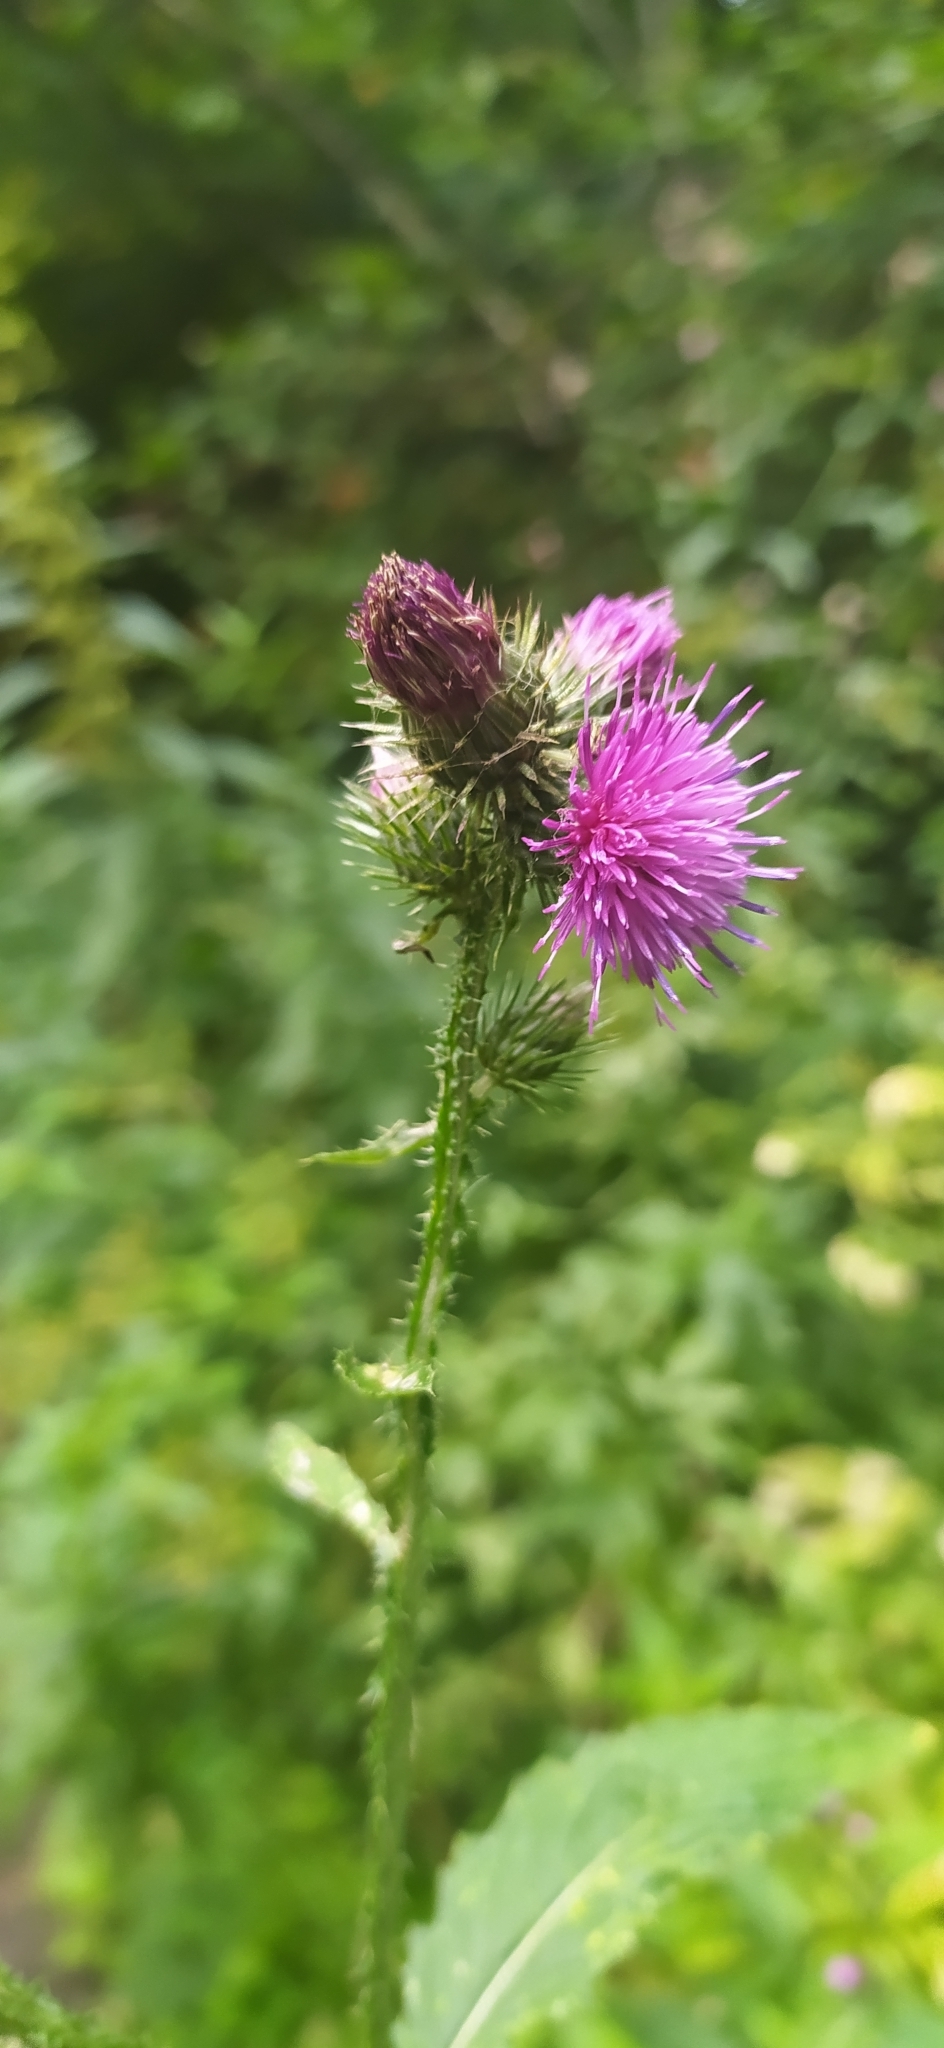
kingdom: Plantae
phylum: Tracheophyta
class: Magnoliopsida
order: Asterales
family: Asteraceae
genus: Carduus
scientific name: Carduus crispus
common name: Welted thistle
